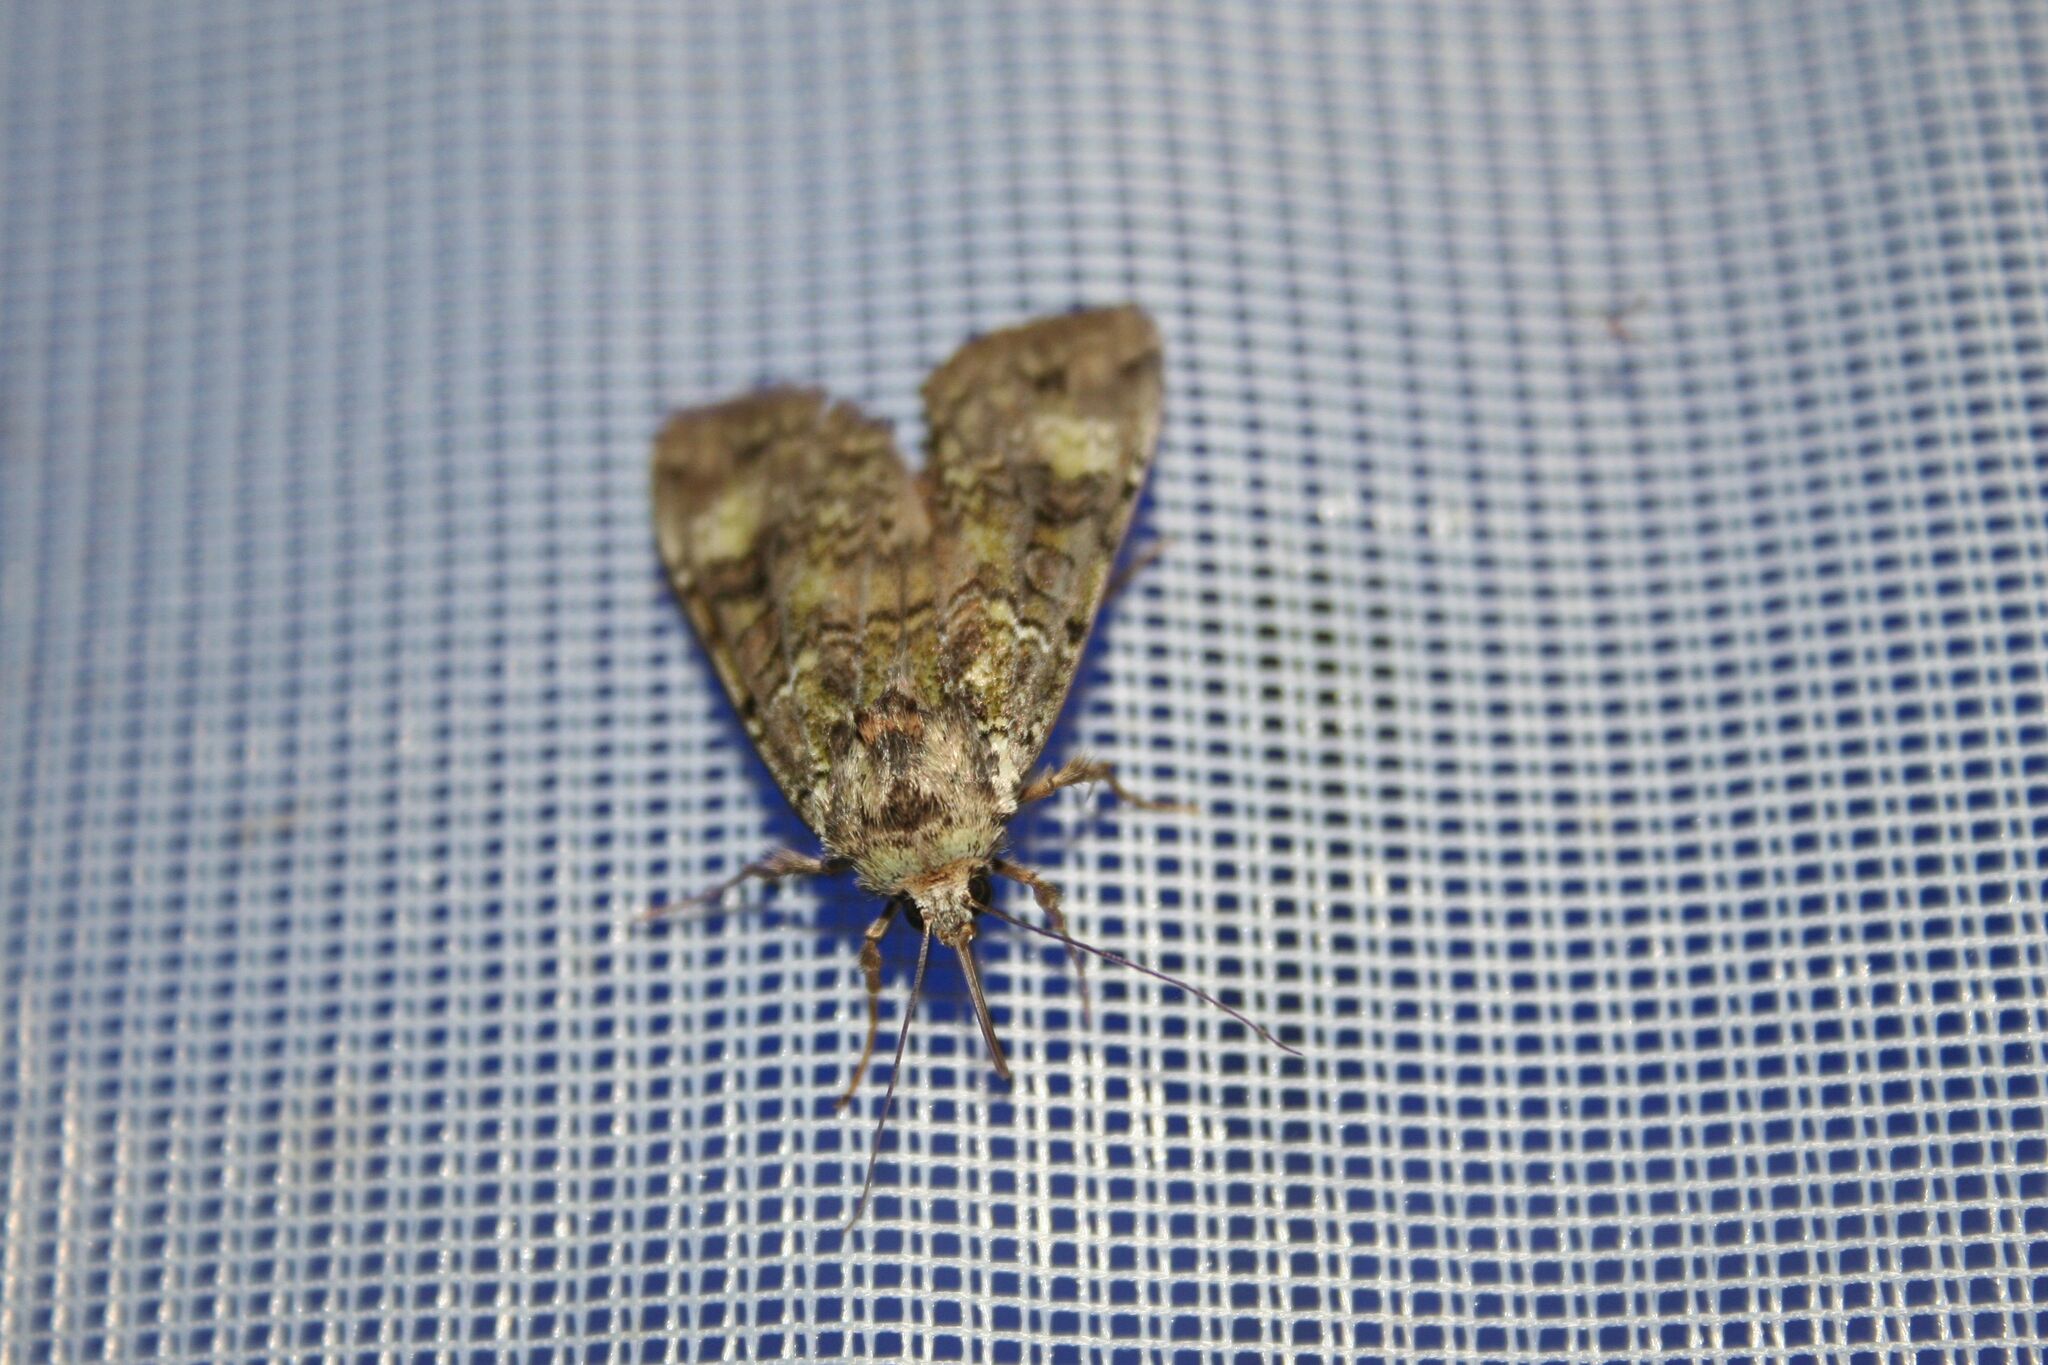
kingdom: Animalia
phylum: Arthropoda
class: Insecta
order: Lepidoptera
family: Noctuidae
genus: Anaplectoides
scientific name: Anaplectoides prasina
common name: Green arches
